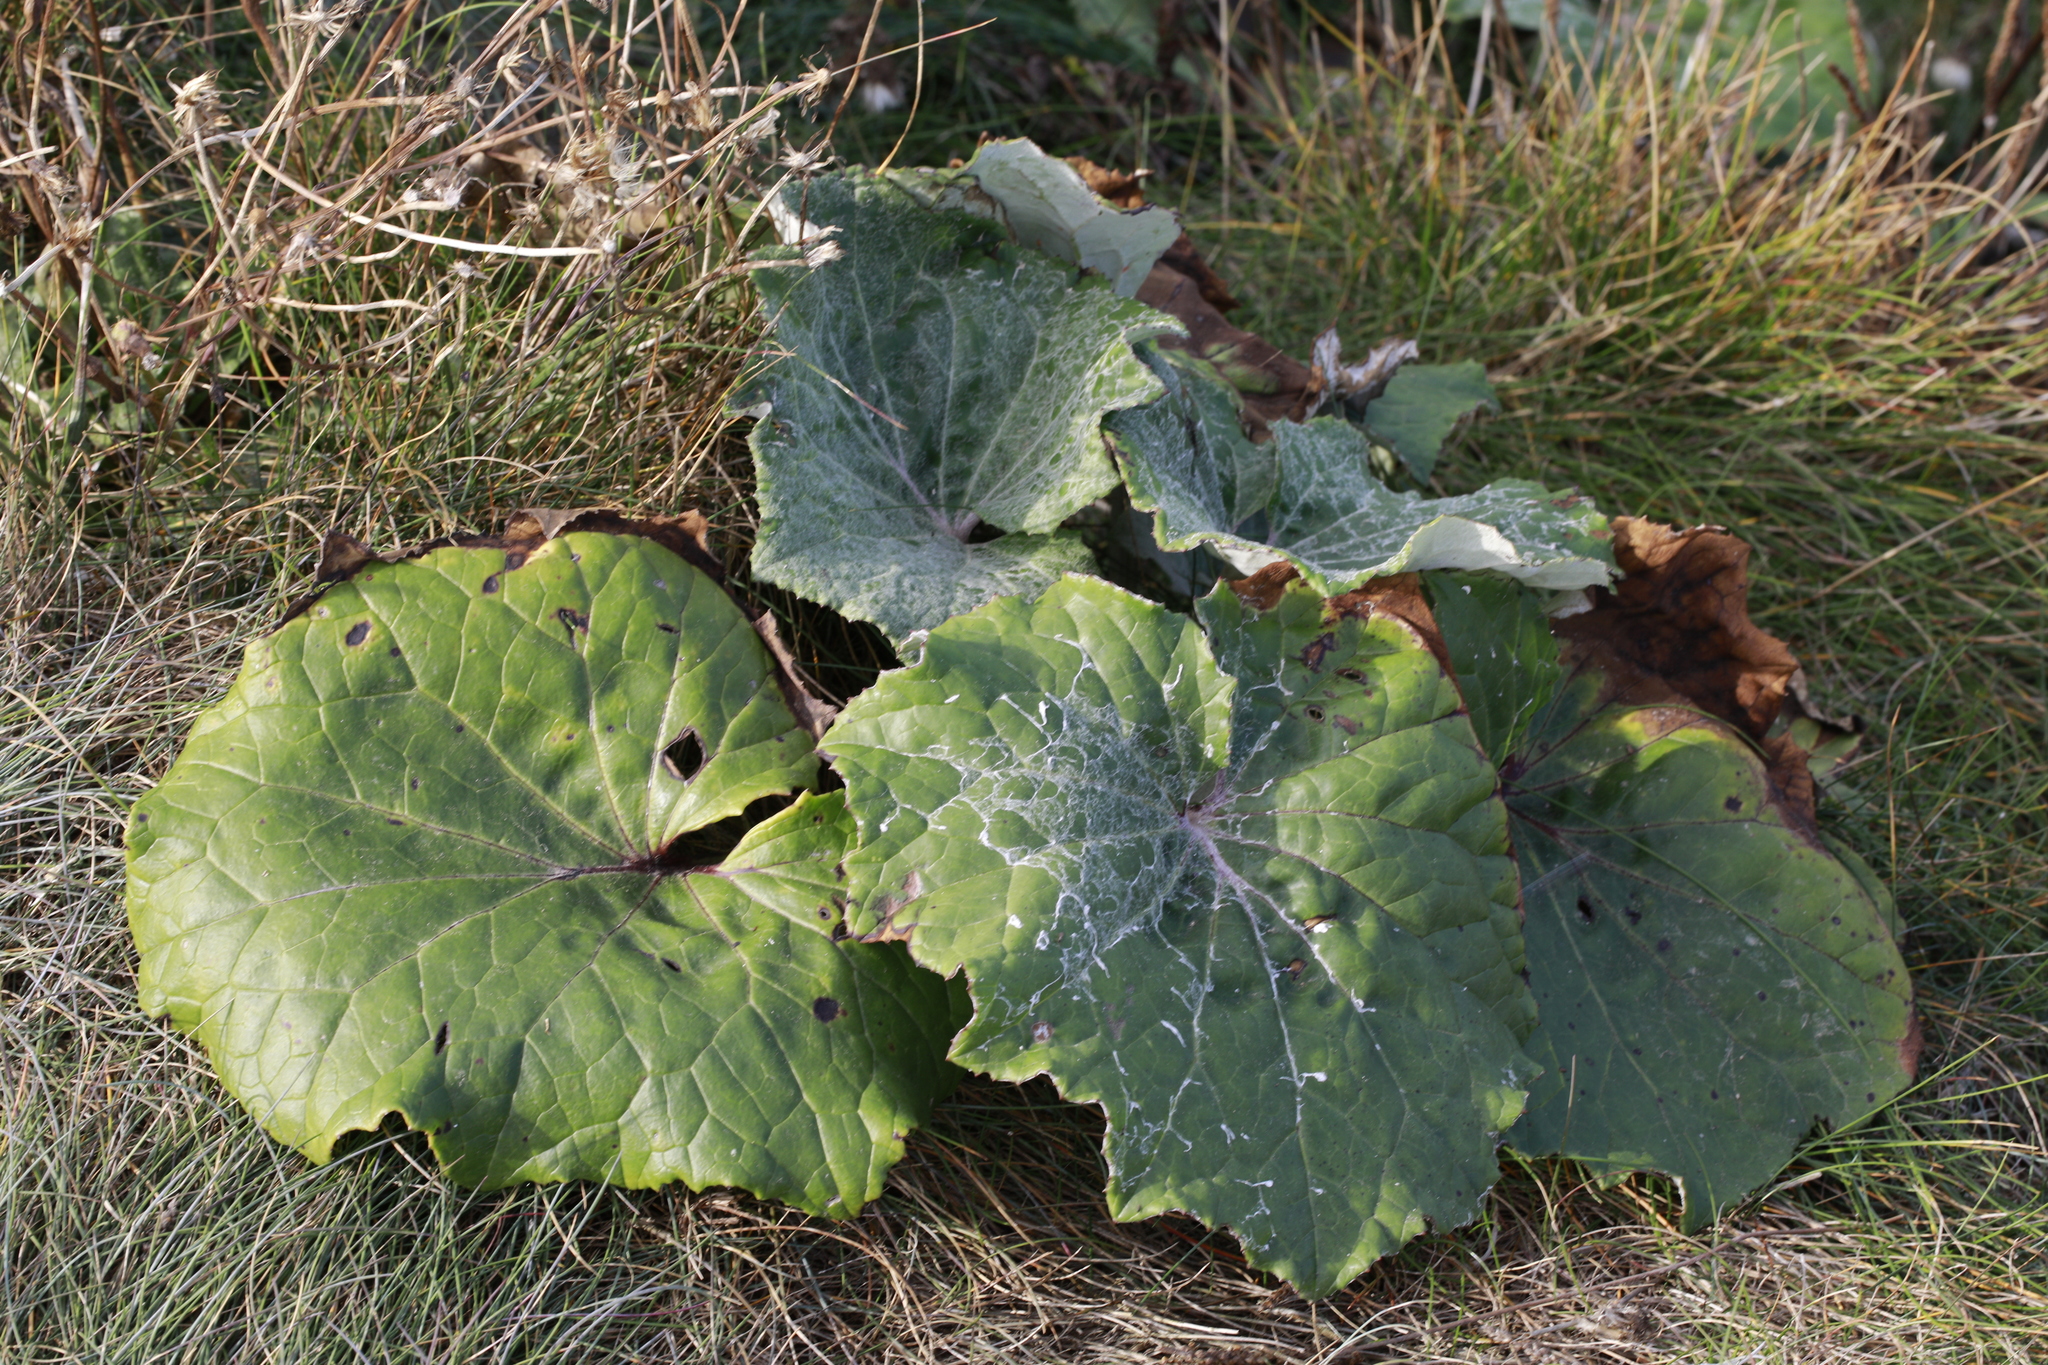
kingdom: Plantae
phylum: Tracheophyta
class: Magnoliopsida
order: Asterales
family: Asteraceae
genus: Tussilago
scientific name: Tussilago farfara
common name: Coltsfoot
